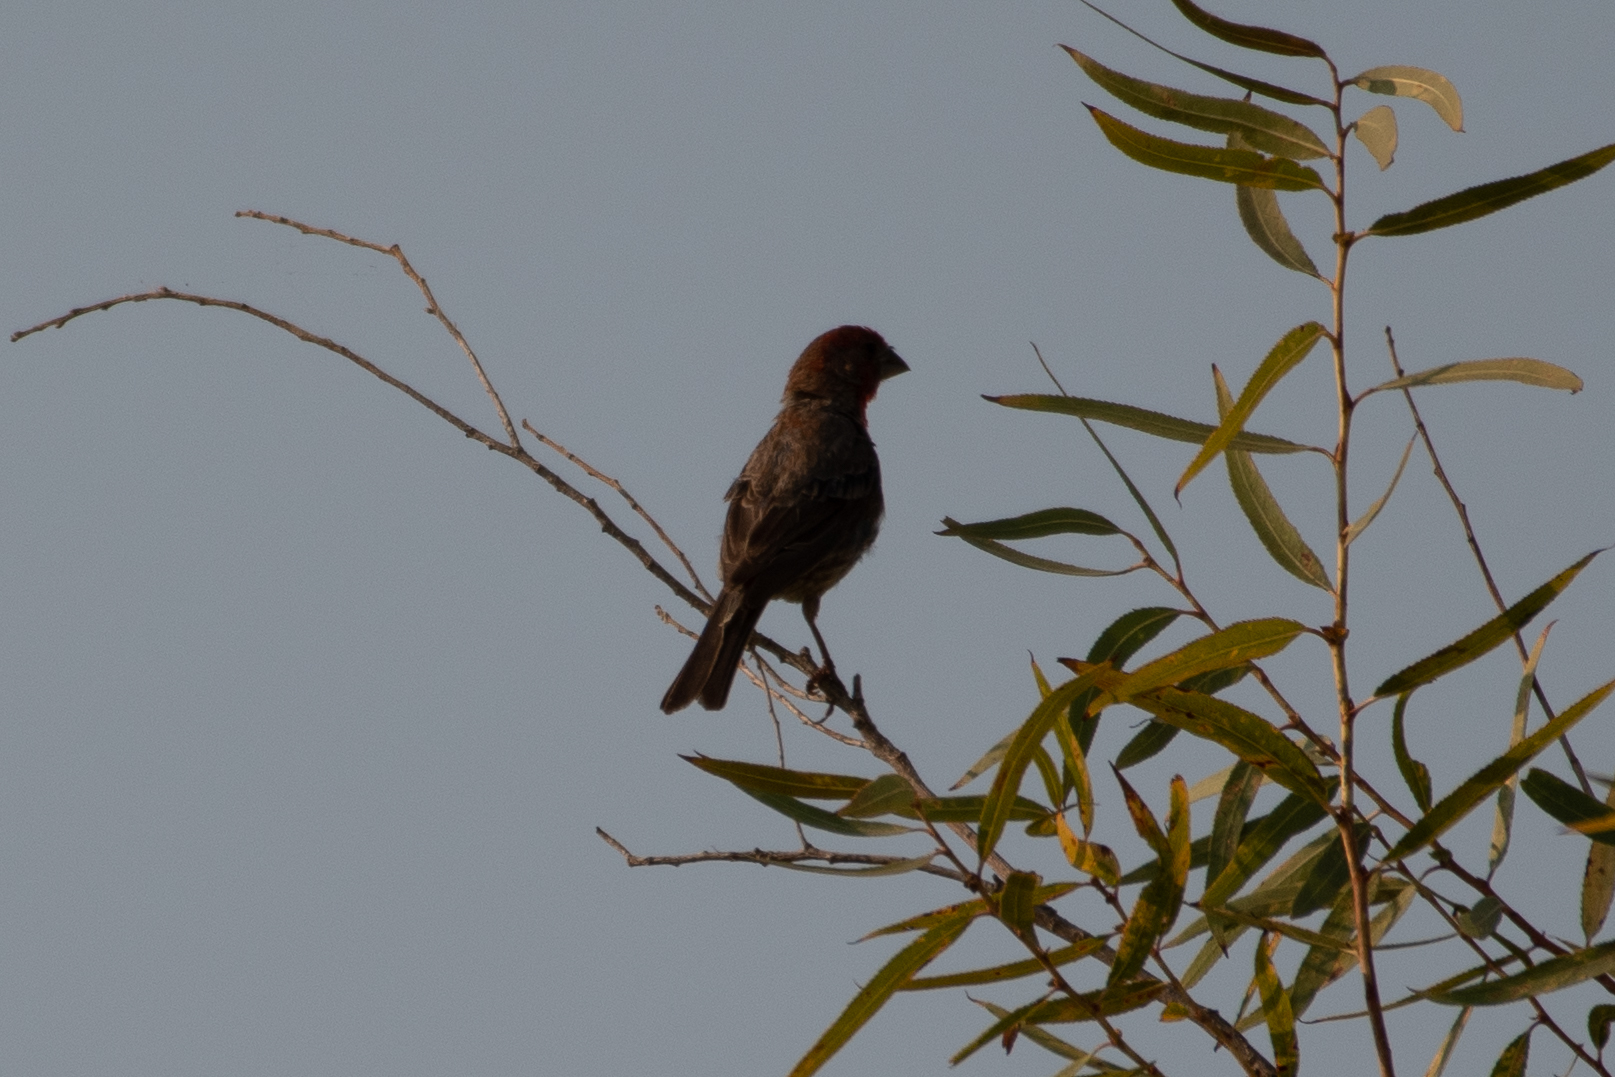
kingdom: Animalia
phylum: Chordata
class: Aves
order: Passeriformes
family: Fringillidae
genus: Haemorhous
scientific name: Haemorhous mexicanus
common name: House finch
